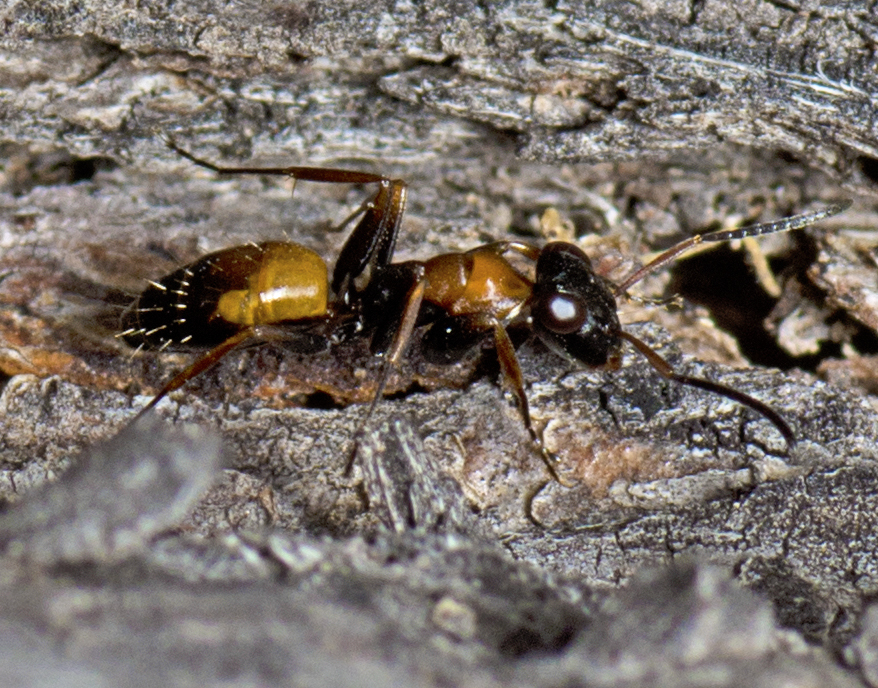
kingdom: Animalia
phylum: Arthropoda
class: Insecta
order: Hymenoptera
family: Formicidae
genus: Opisthopsis
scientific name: Opisthopsis pictus
